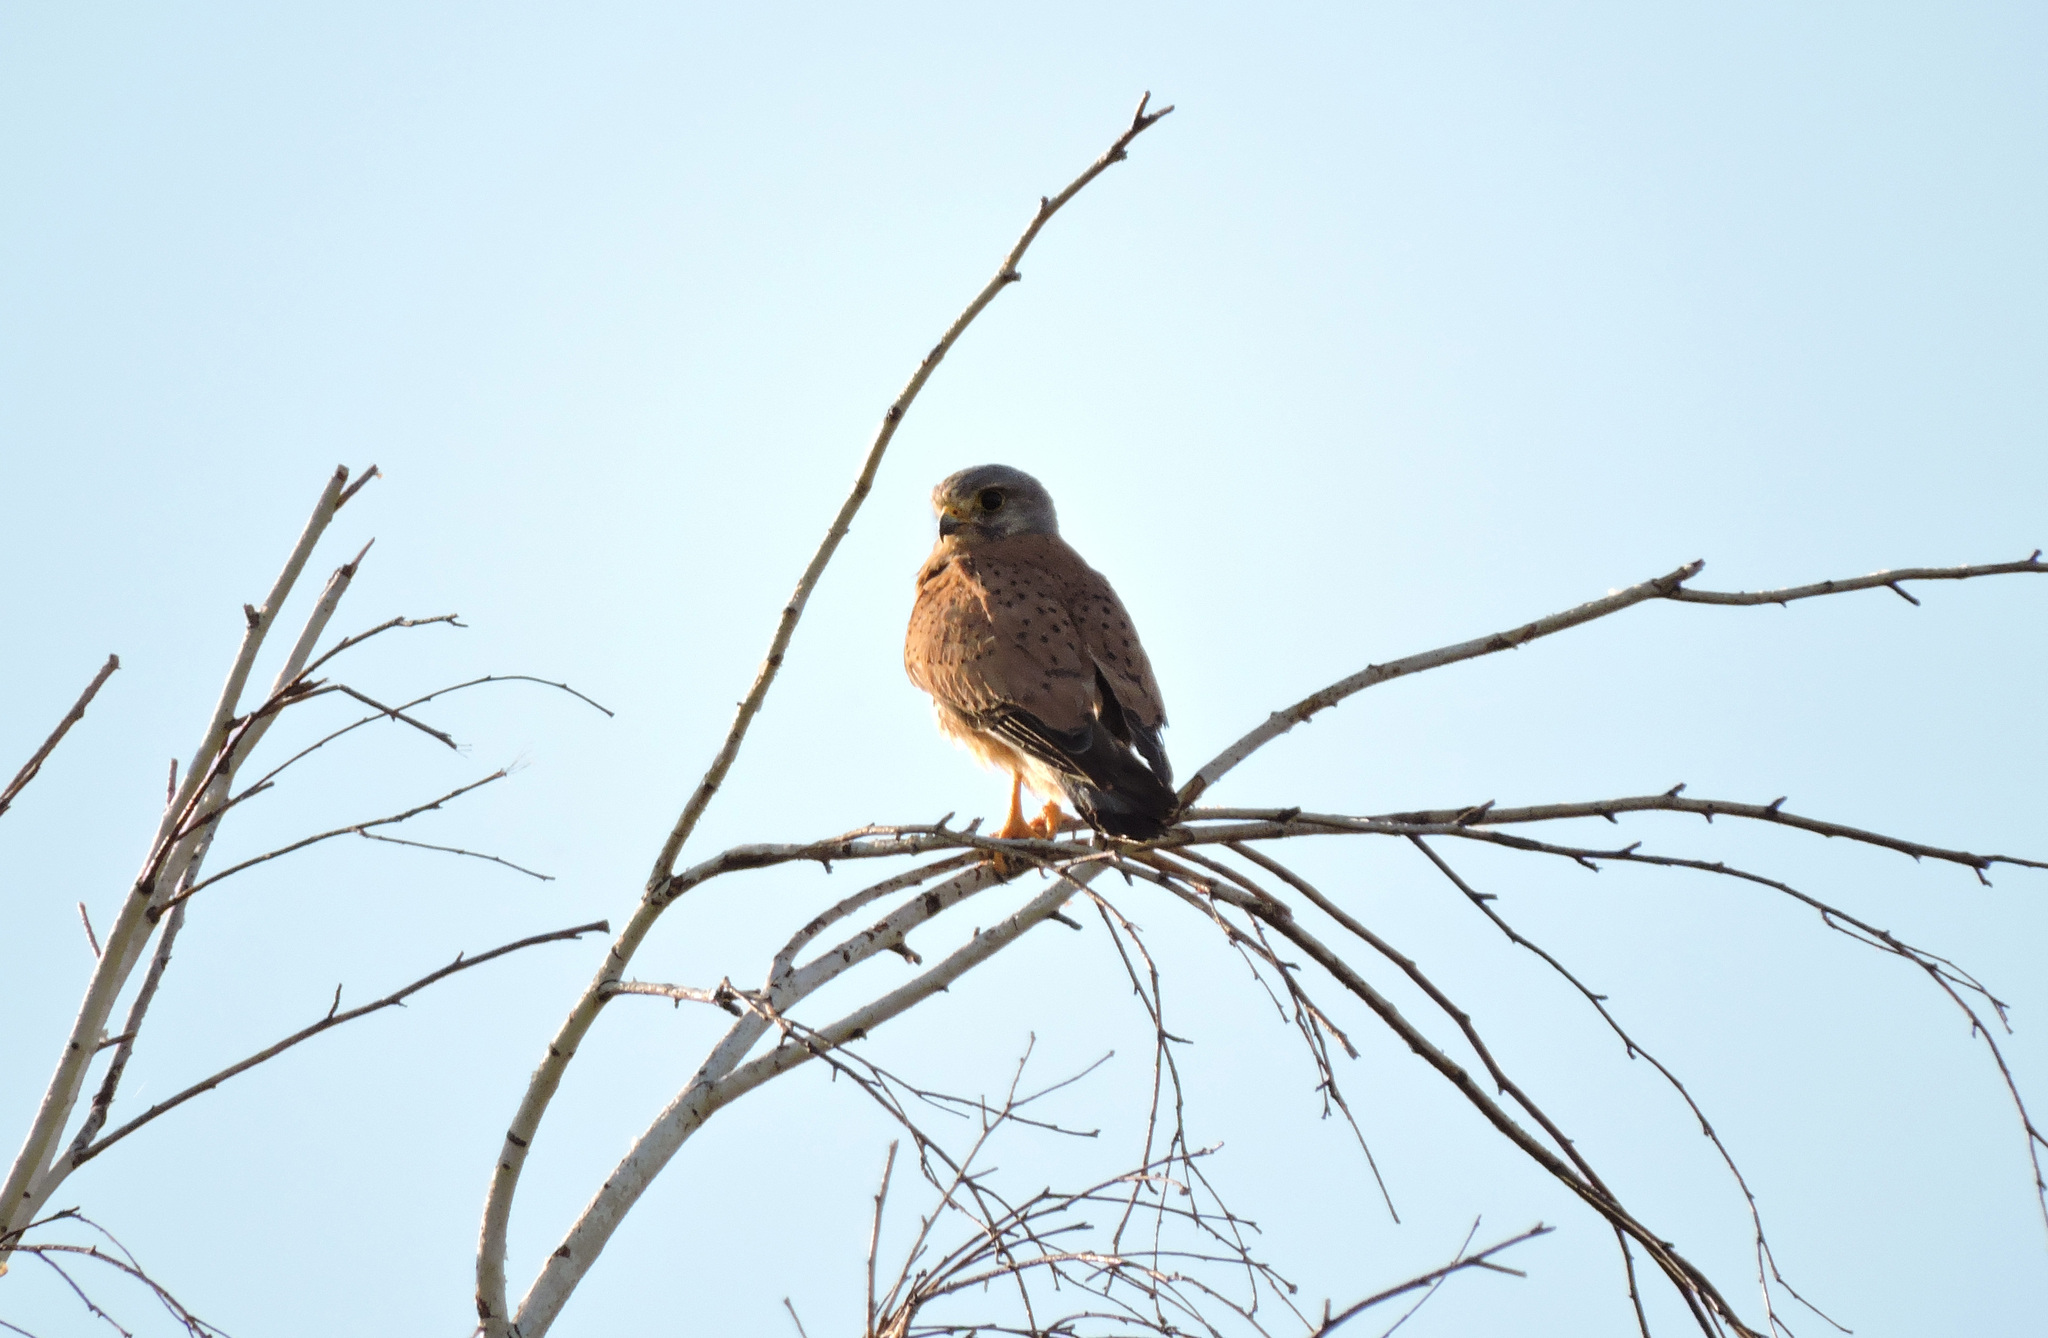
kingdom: Animalia
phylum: Chordata
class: Aves
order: Falconiformes
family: Falconidae
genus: Falco
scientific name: Falco tinnunculus
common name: Common kestrel
